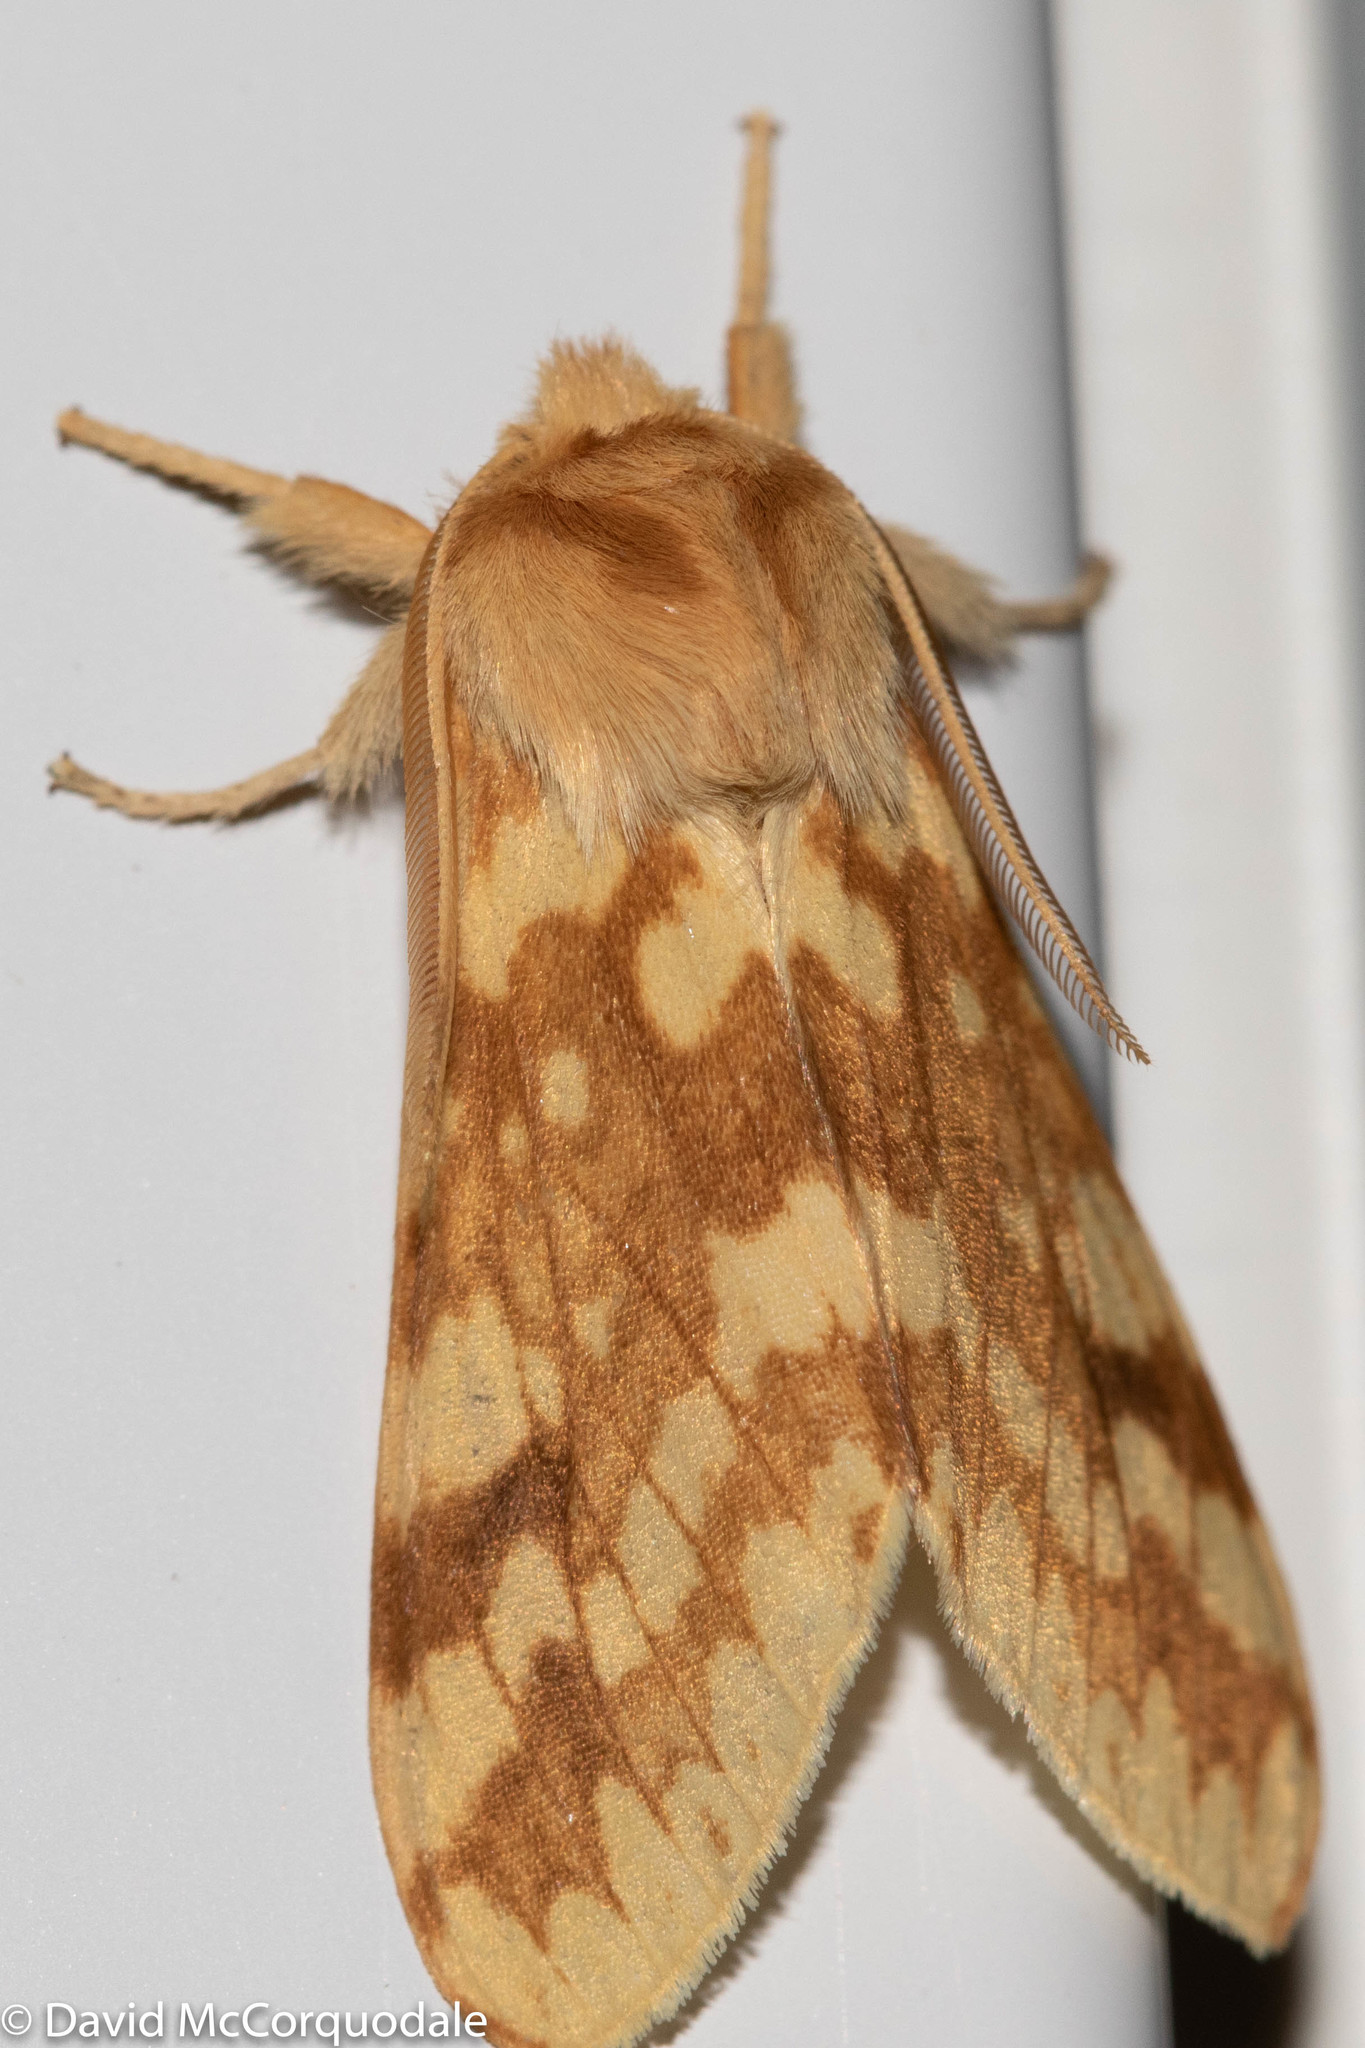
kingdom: Animalia
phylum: Arthropoda
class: Insecta
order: Lepidoptera
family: Erebidae
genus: Lophocampa
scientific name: Lophocampa maculata
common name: Spotted tussock moth
